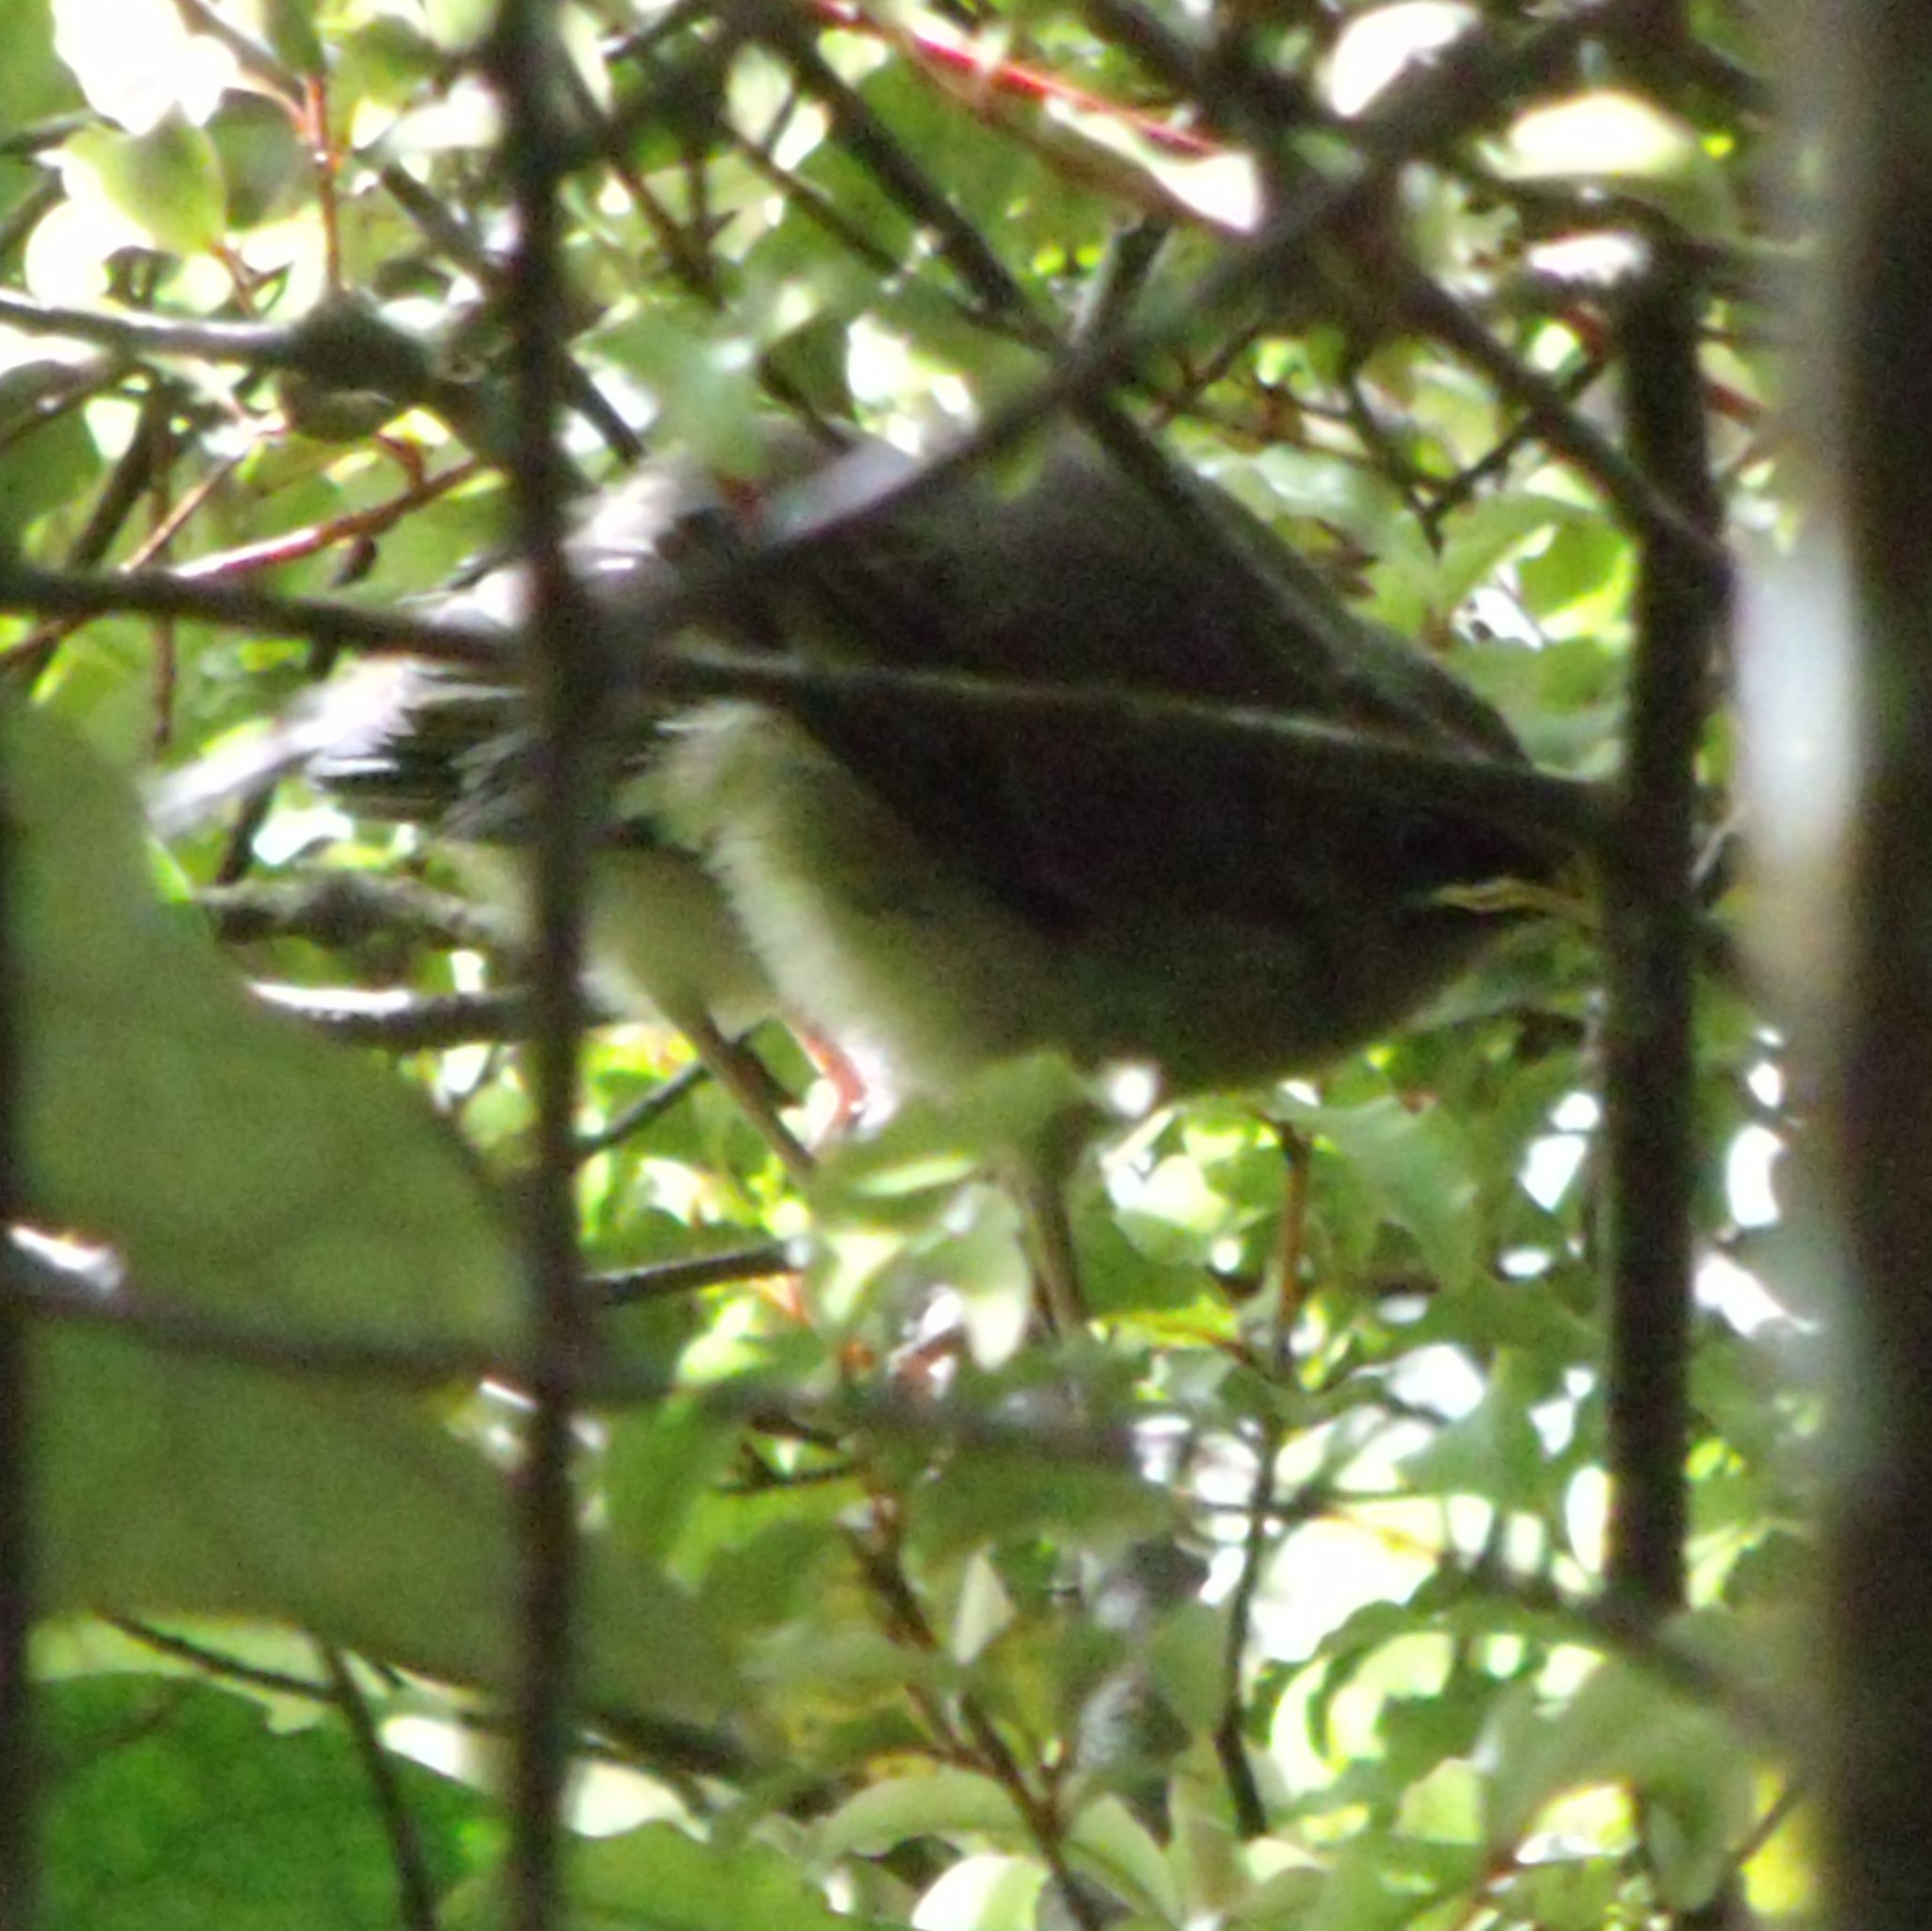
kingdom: Animalia
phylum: Chordata
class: Aves
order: Passeriformes
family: Meliphagidae
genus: Anthornis
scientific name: Anthornis melanura
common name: New zealand bellbird
